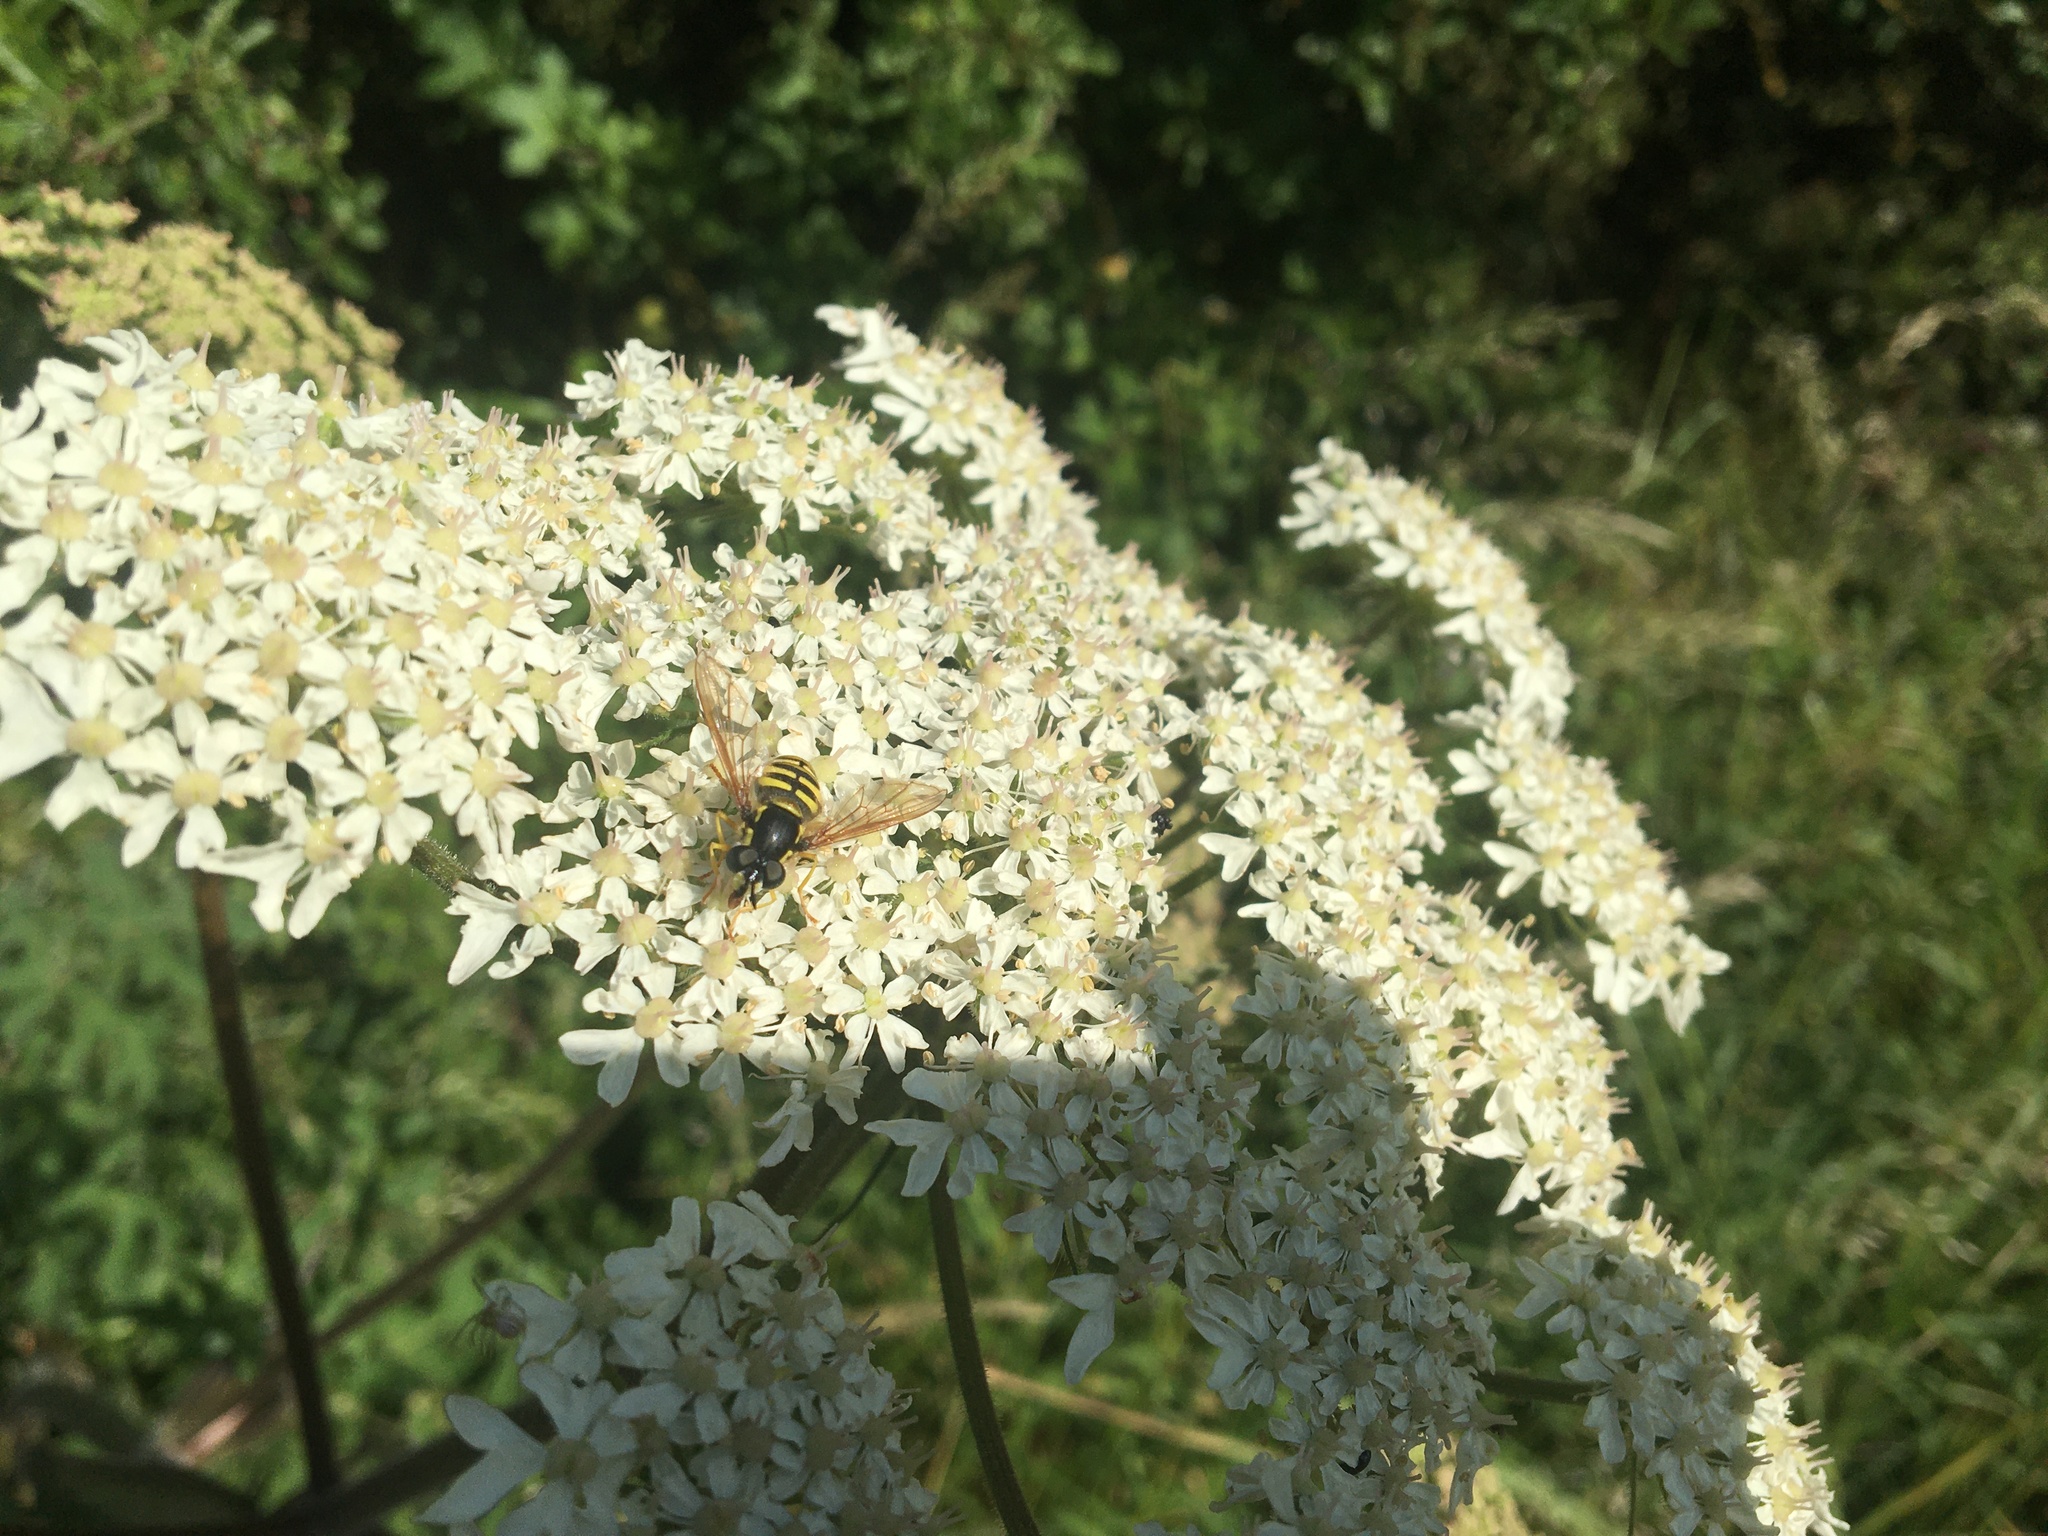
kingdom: Animalia
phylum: Arthropoda
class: Insecta
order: Diptera
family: Syrphidae
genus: Sericomyia
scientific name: Sericomyia silentis
